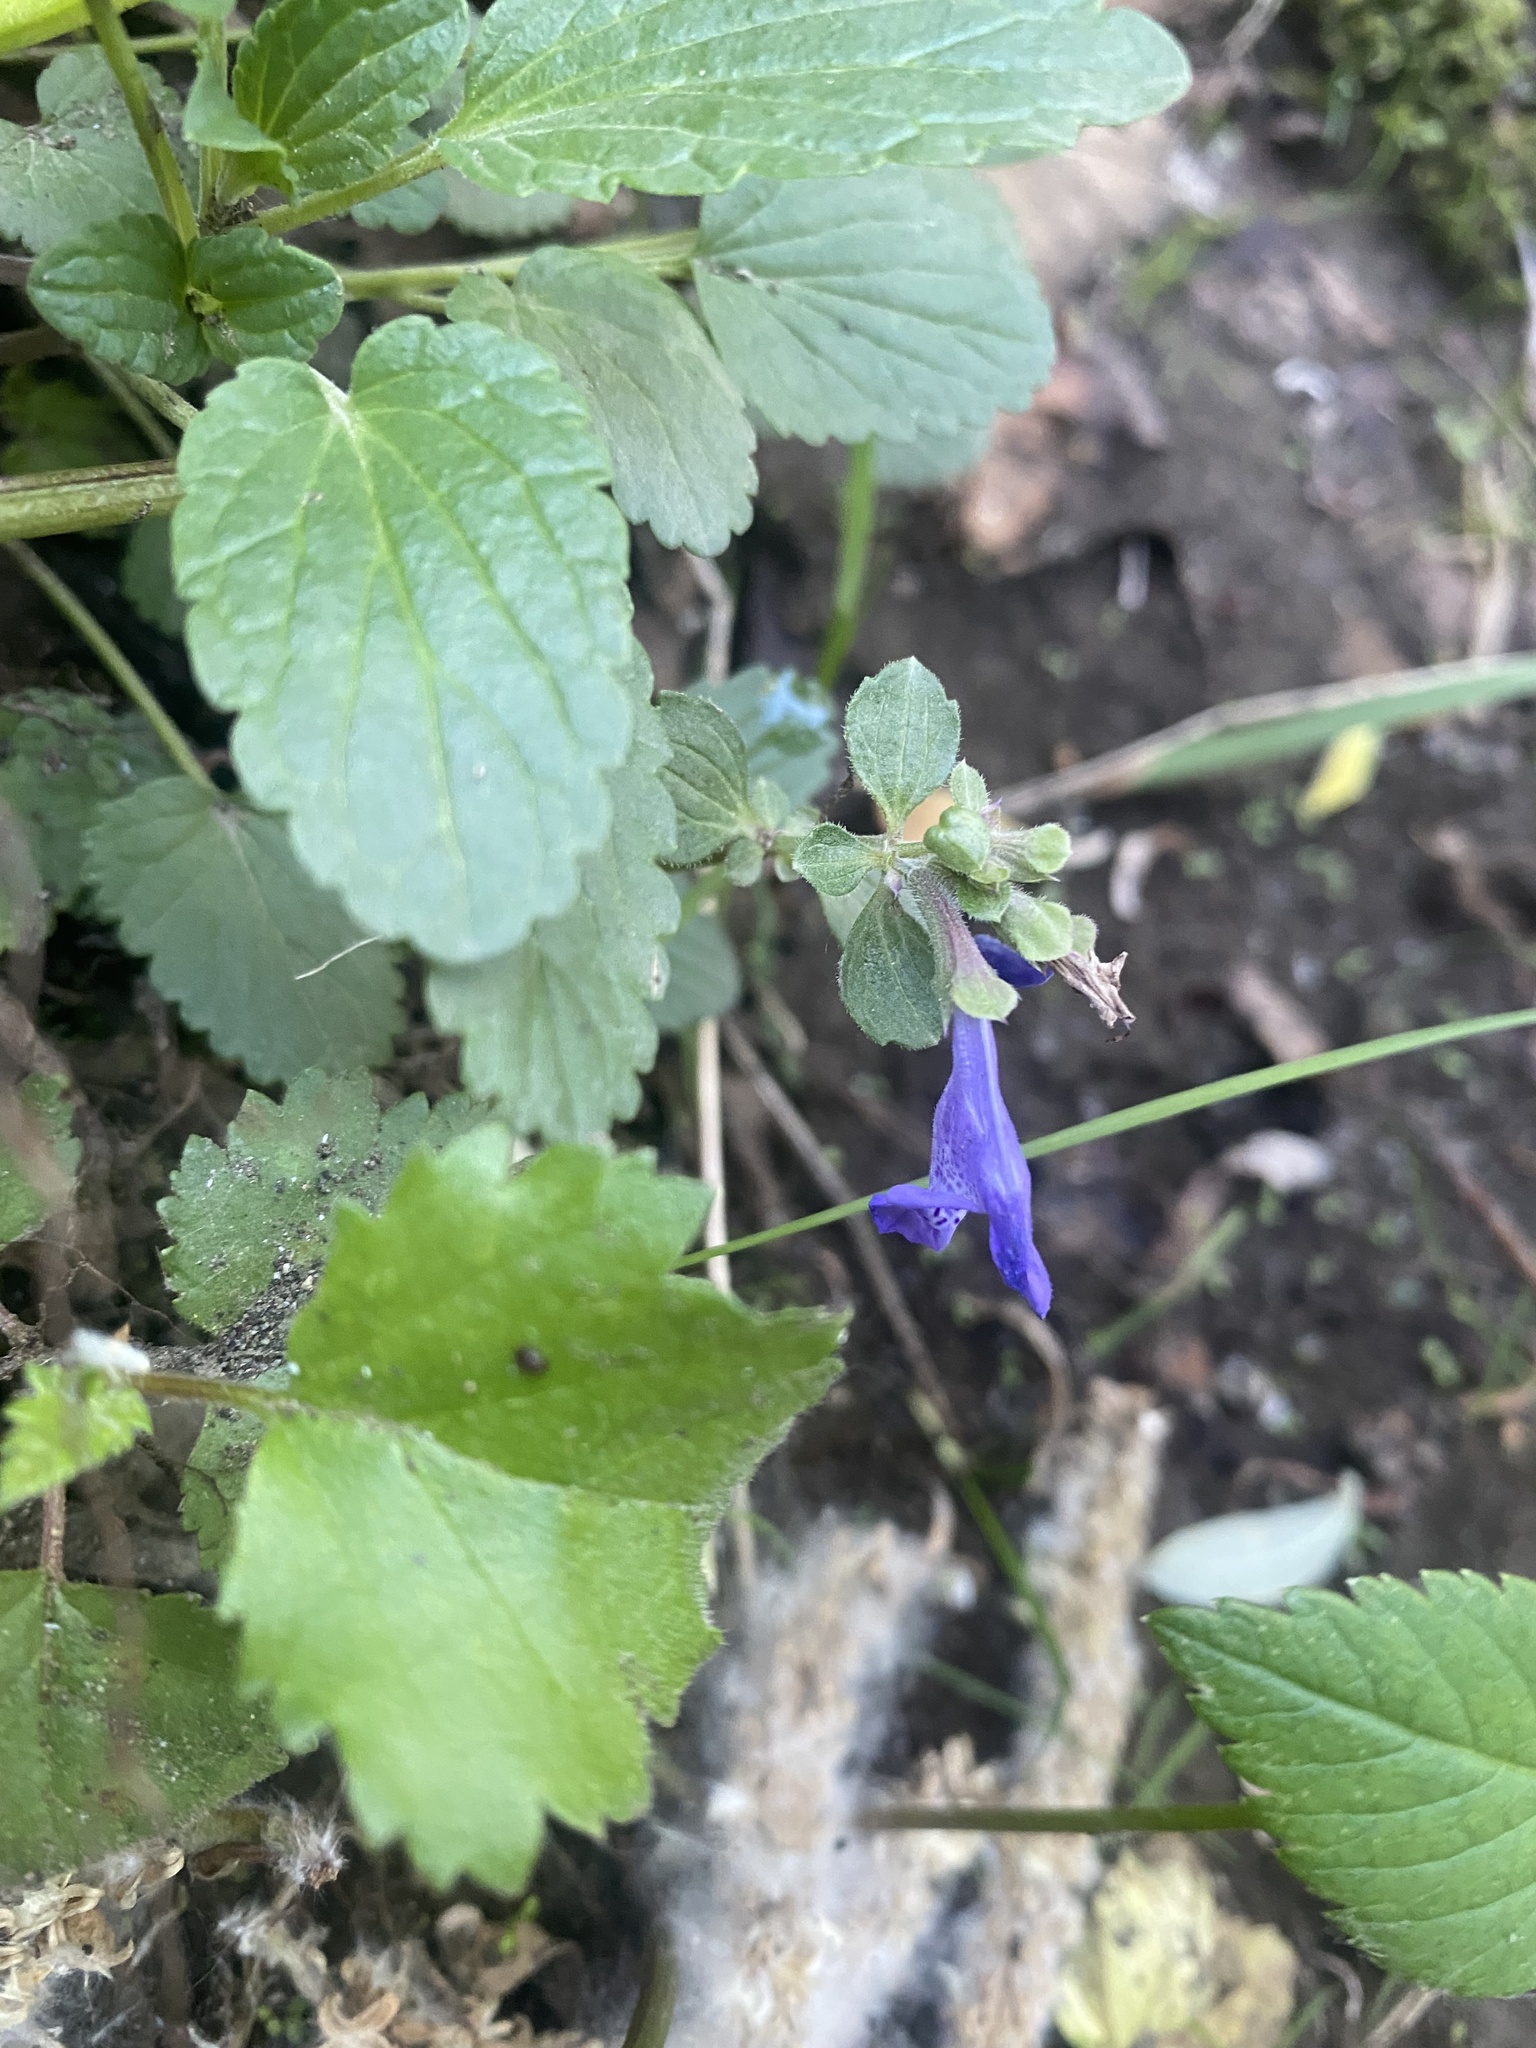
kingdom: Plantae
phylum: Tracheophyta
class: Magnoliopsida
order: Lamiales
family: Lamiaceae
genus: Dracocephalum
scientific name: Dracocephalum nutans
